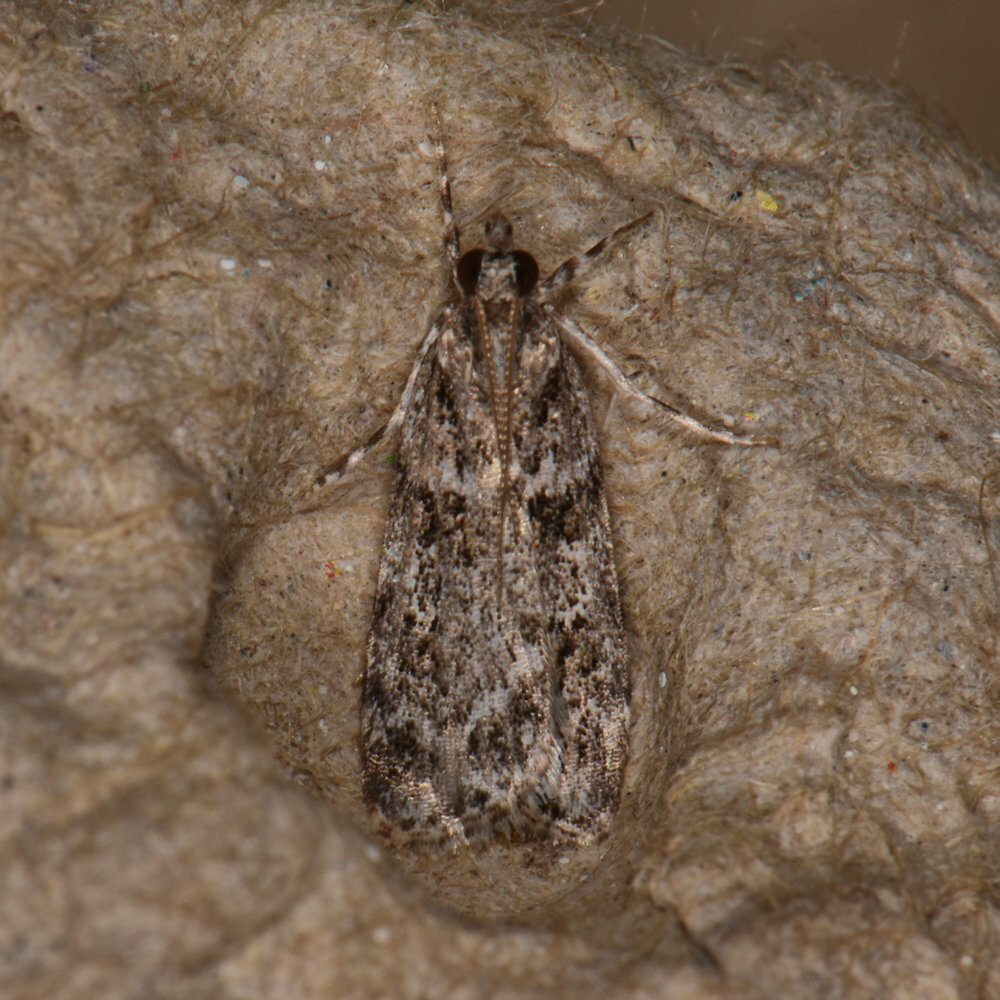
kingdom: Animalia
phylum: Arthropoda
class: Insecta
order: Lepidoptera
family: Crambidae
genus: Scoparia
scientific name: Scoparia biplagialis
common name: Double-striped scoparia moth
